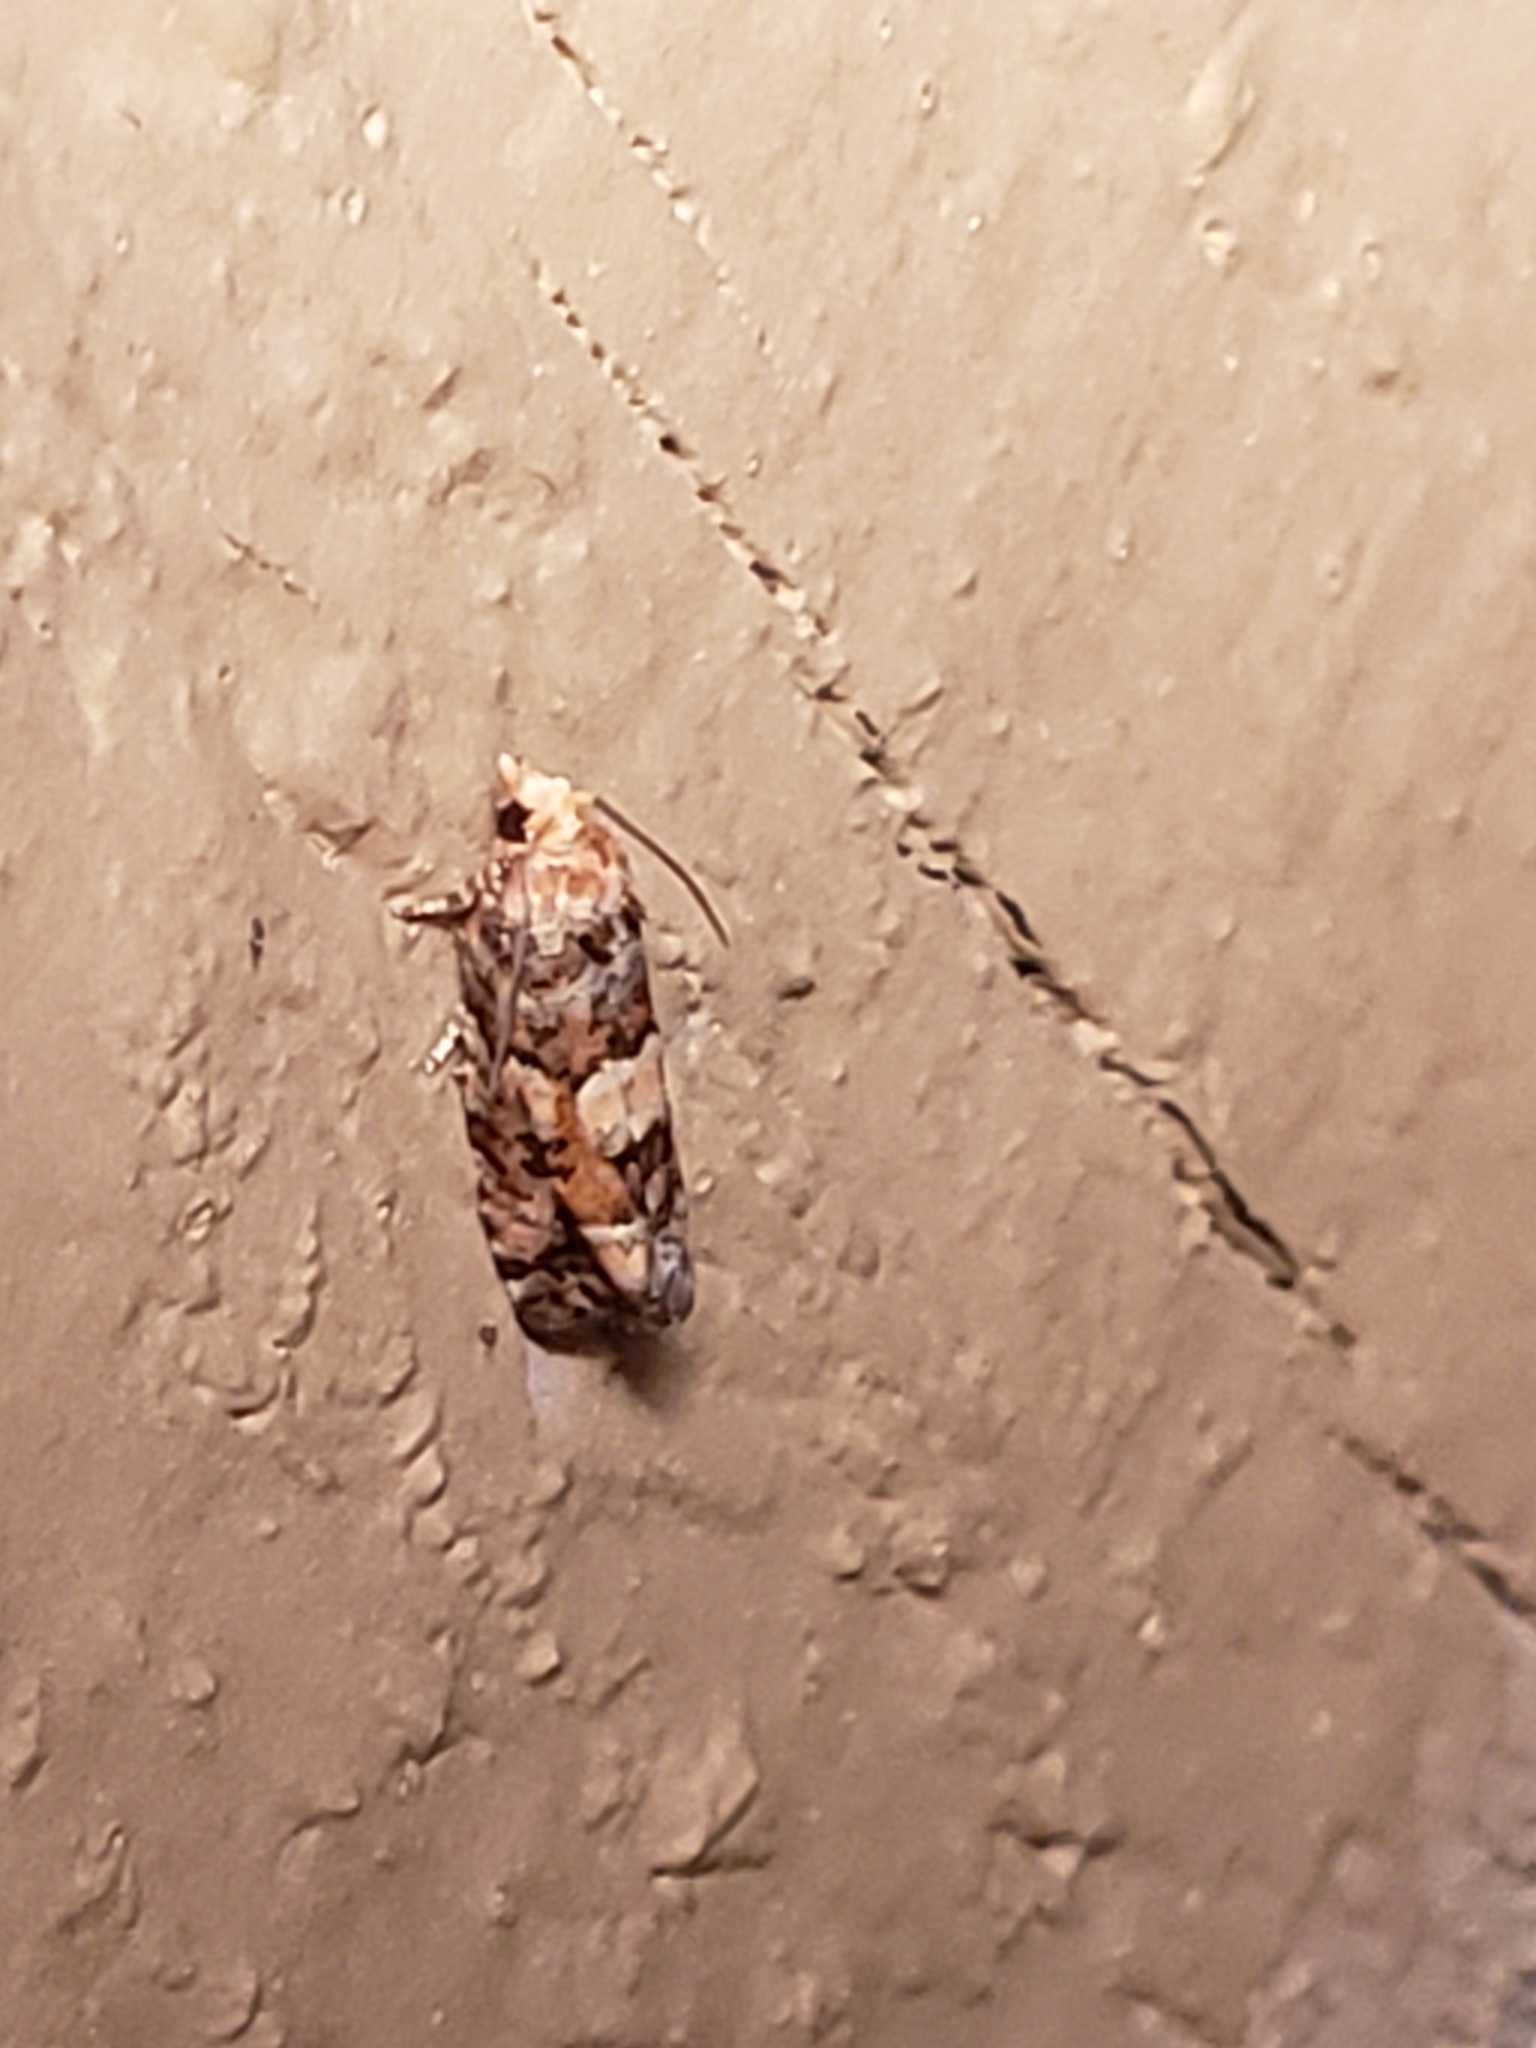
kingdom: Animalia
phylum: Arthropoda
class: Insecta
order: Lepidoptera
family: Tortricidae
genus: Eucopina
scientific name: Eucopina tocullionana
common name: White pinecone borer moth
